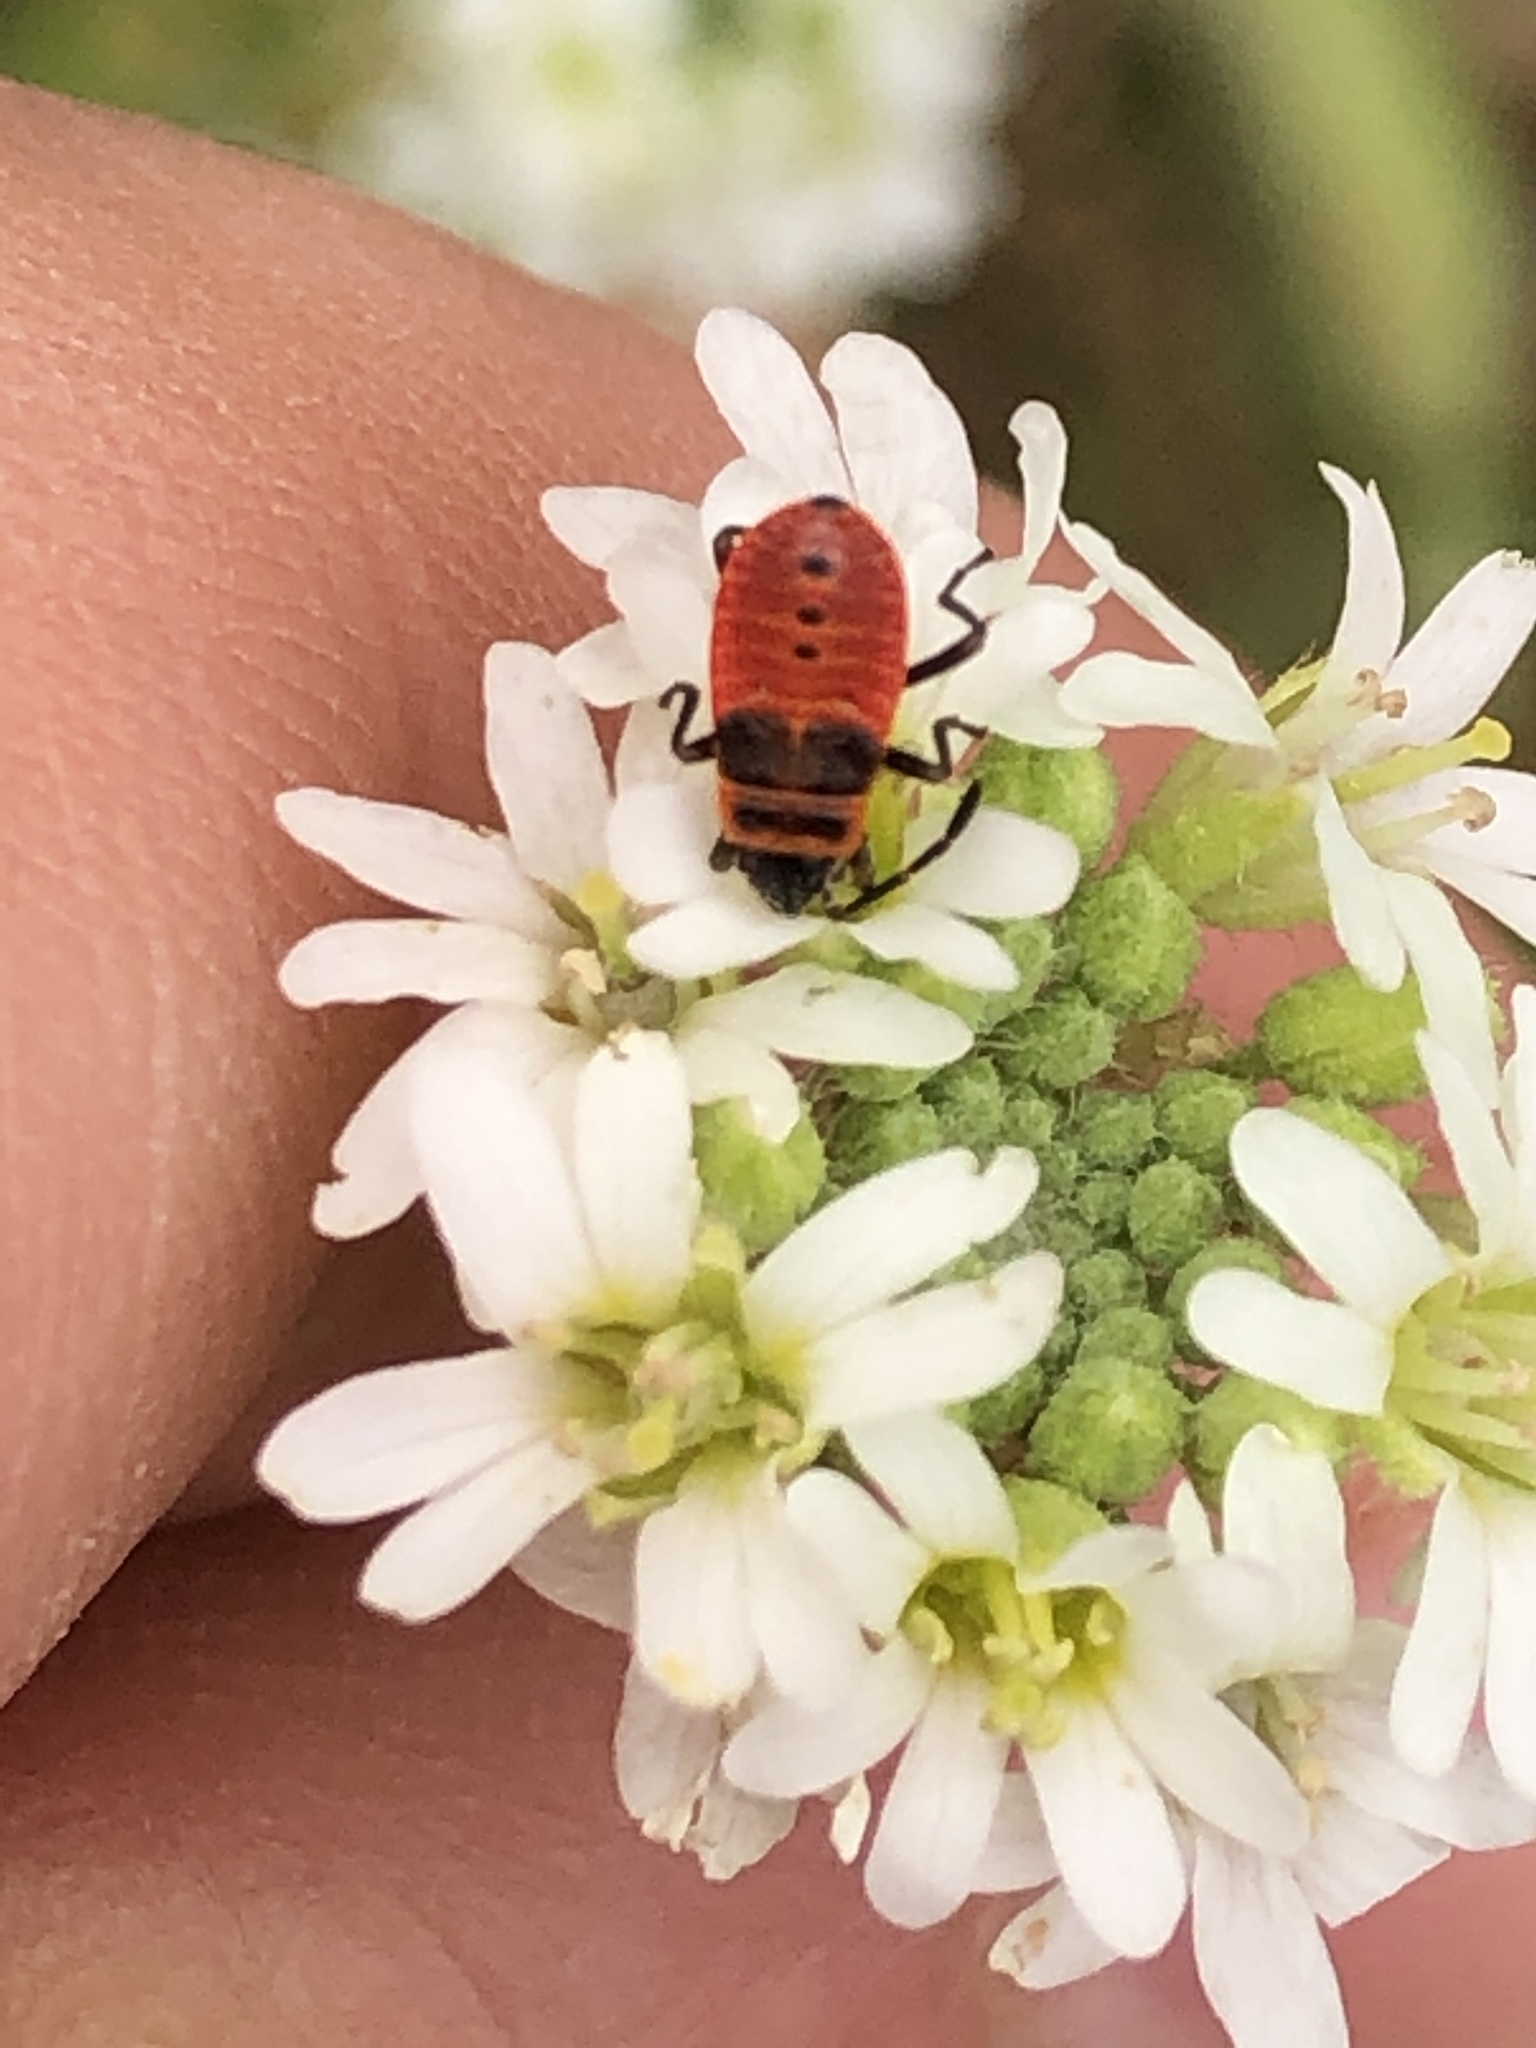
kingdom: Animalia
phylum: Arthropoda
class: Insecta
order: Hemiptera
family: Pyrrhocoridae
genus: Pyrrhocoris
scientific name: Pyrrhocoris apterus
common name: Firebug
